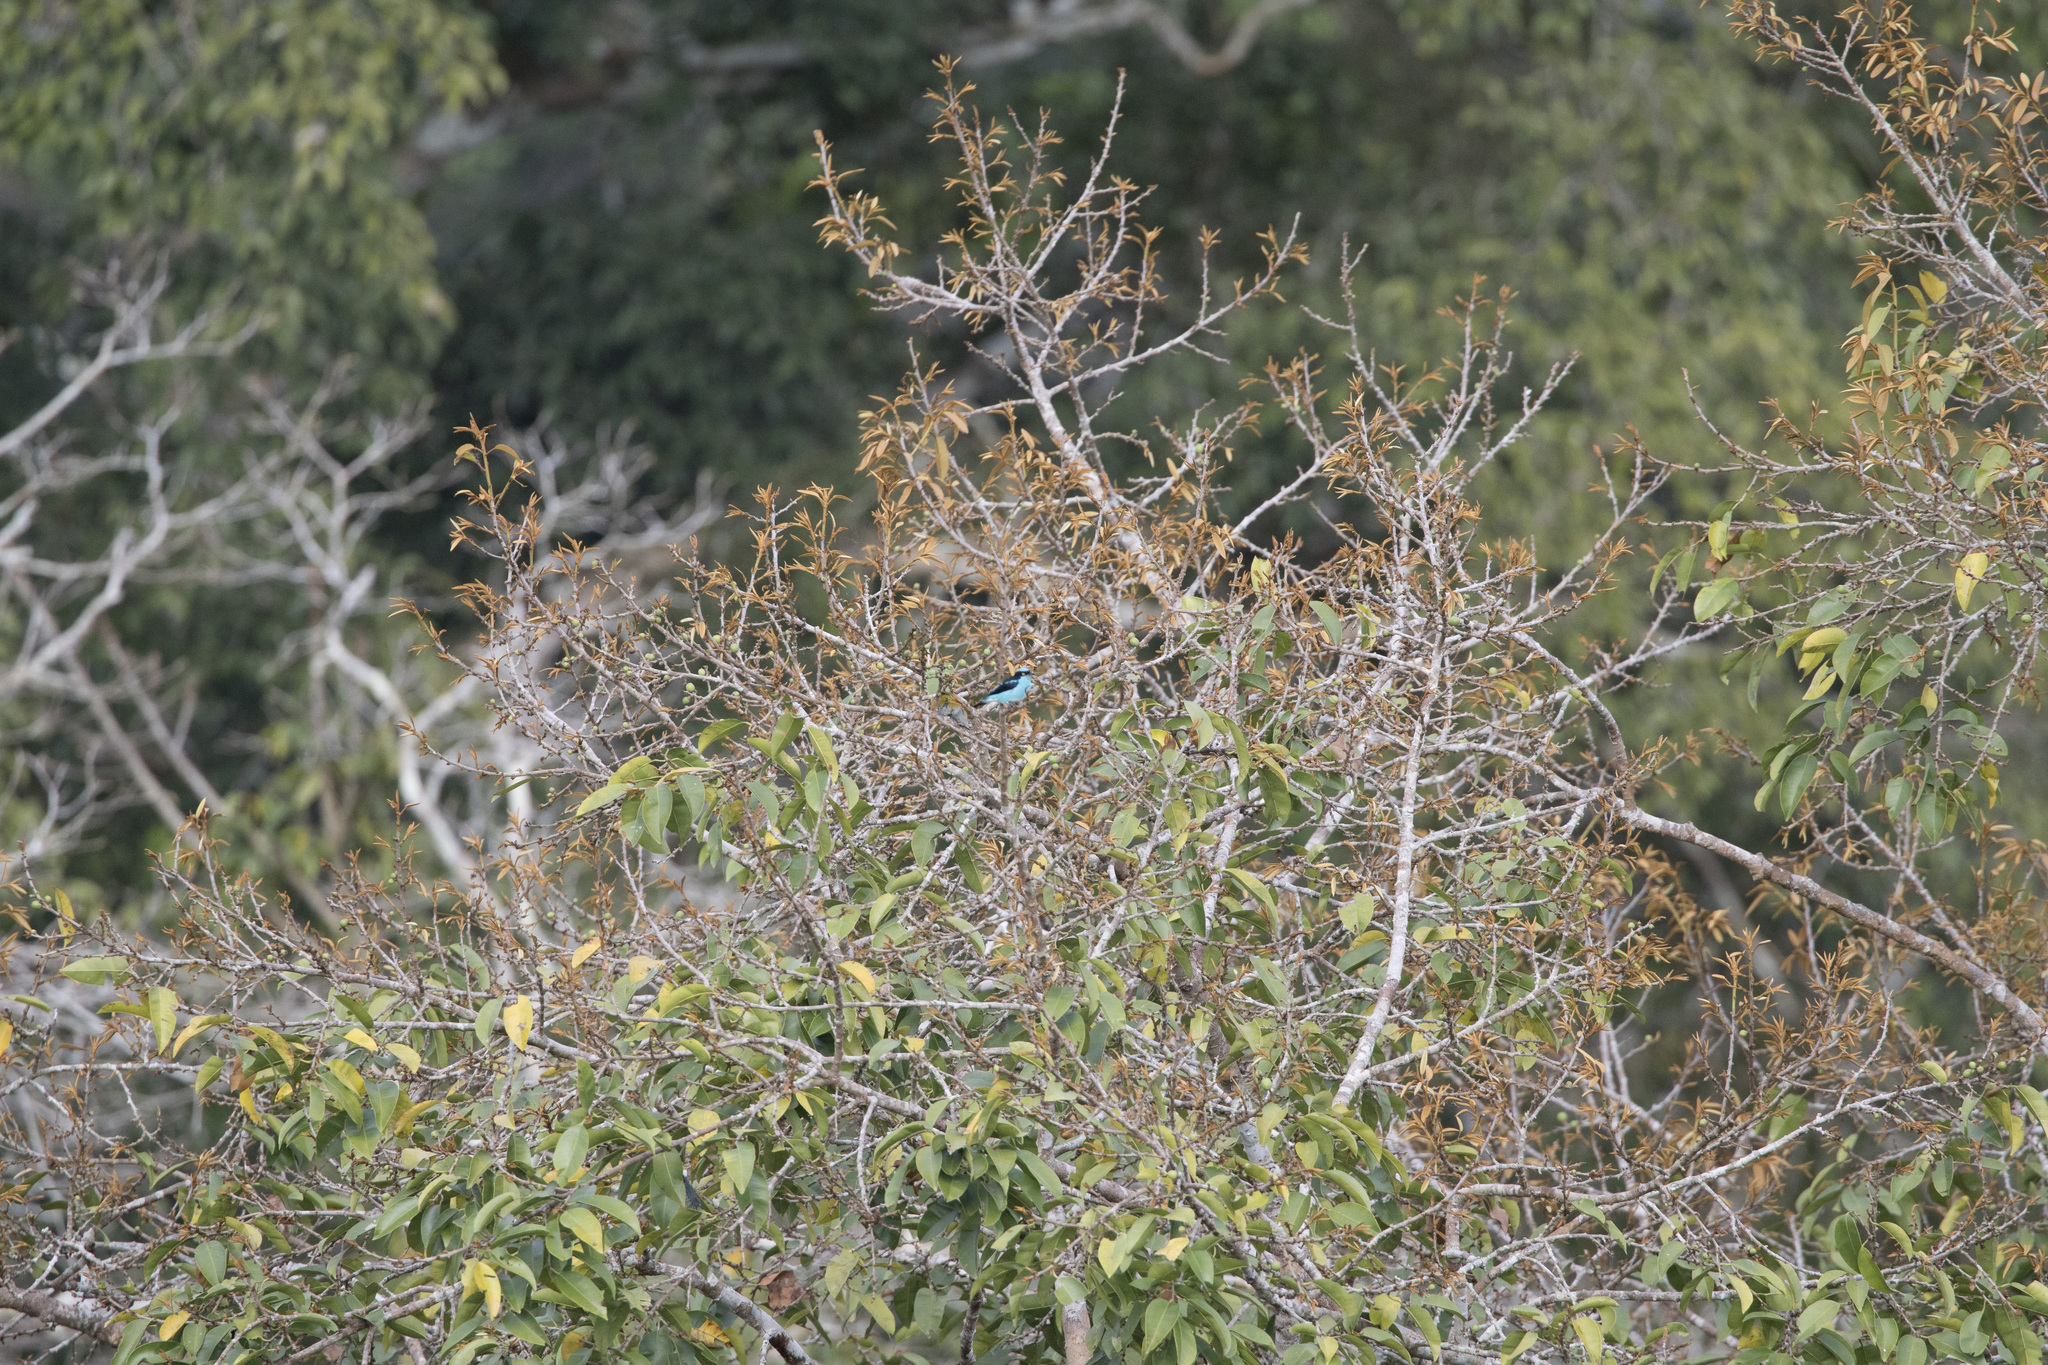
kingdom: Animalia
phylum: Chordata
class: Aves
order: Passeriformes
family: Thraupidae
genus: Dacnis
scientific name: Dacnis lineata
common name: Black-faced dacnis
